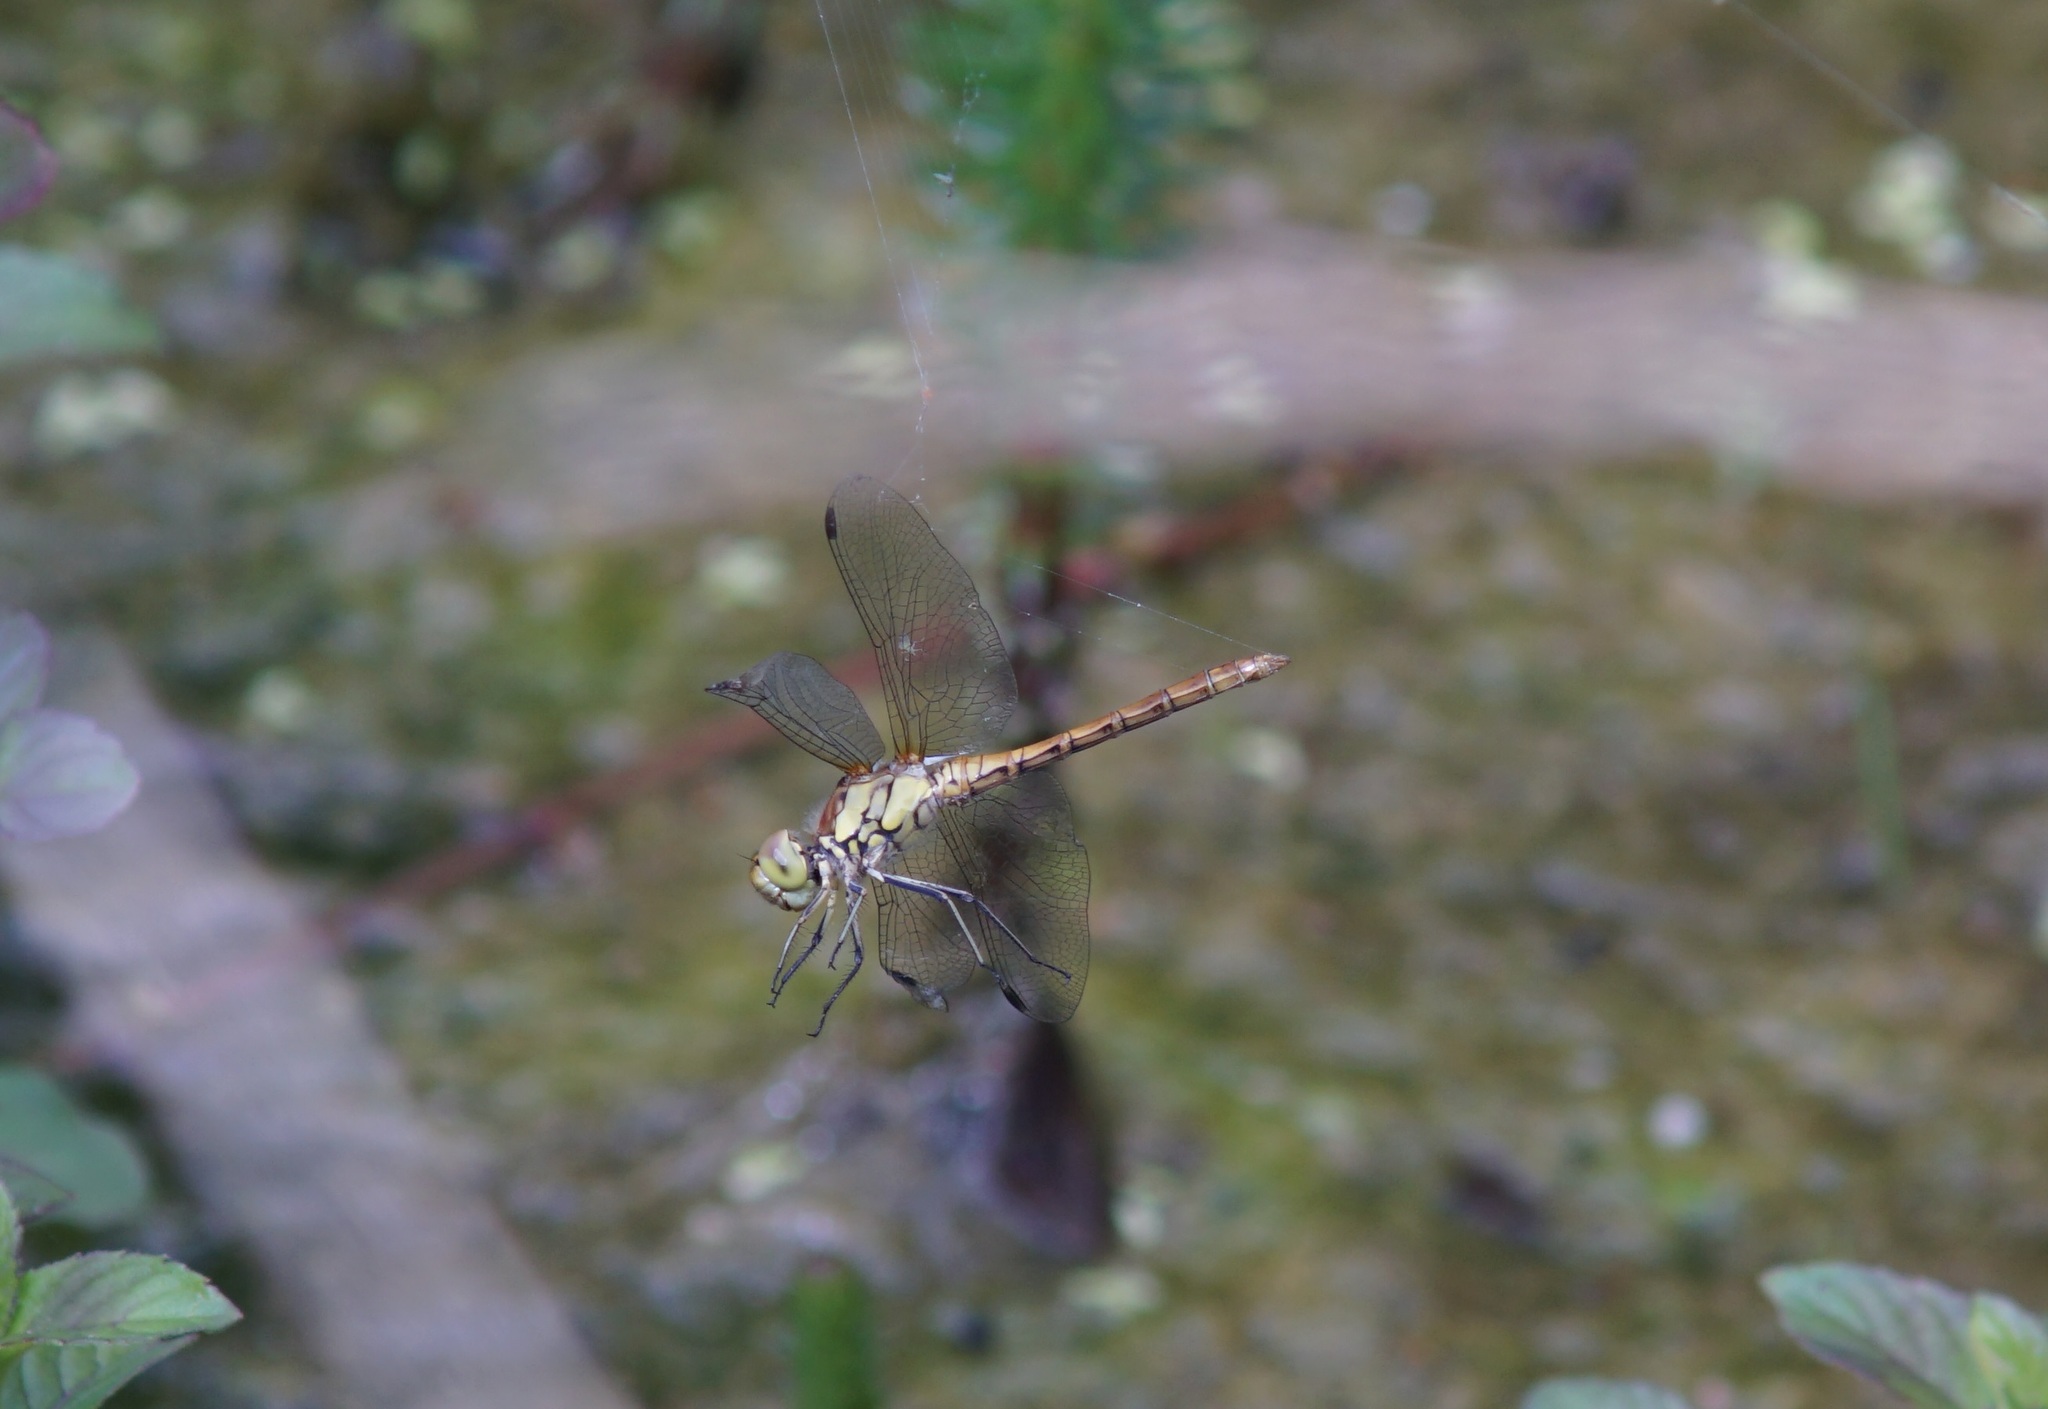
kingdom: Animalia
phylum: Arthropoda
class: Insecta
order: Odonata
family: Libellulidae
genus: Sympetrum
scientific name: Sympetrum striolatum
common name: Common darter
